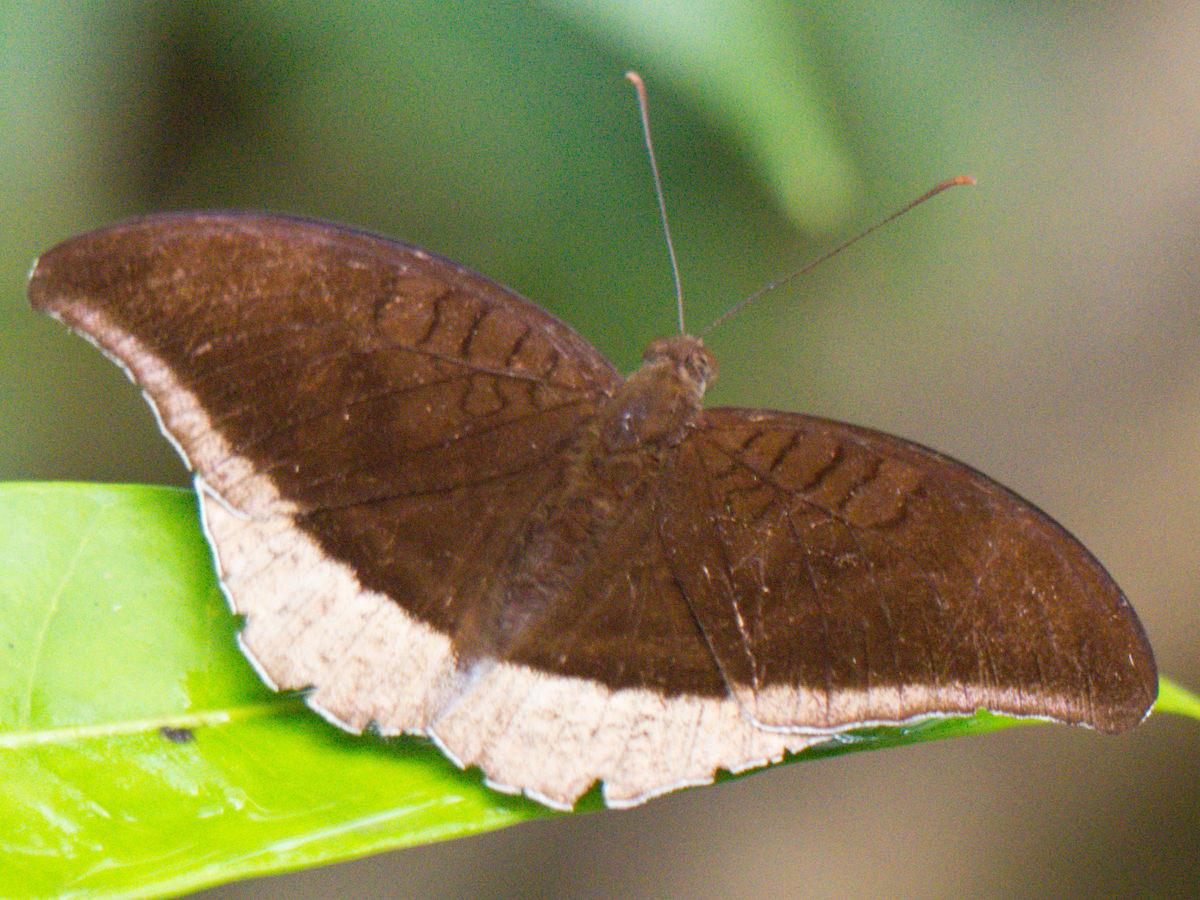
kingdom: Animalia
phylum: Arthropoda
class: Insecta
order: Lepidoptera
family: Nymphalidae
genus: Tanaecia
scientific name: Tanaecia lepidea
